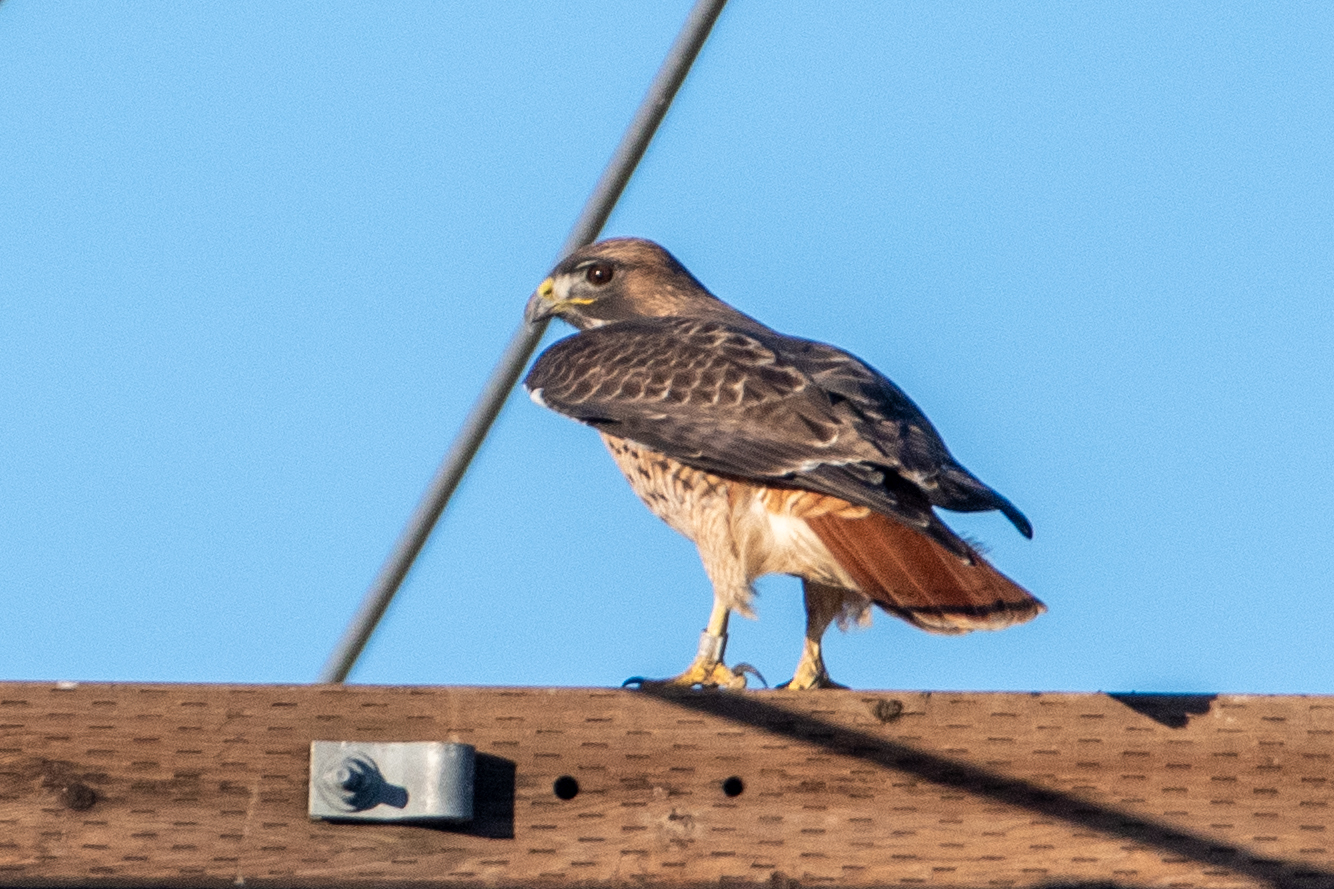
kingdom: Animalia
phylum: Chordata
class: Aves
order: Accipitriformes
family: Accipitridae
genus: Buteo
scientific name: Buteo jamaicensis
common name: Red-tailed hawk
